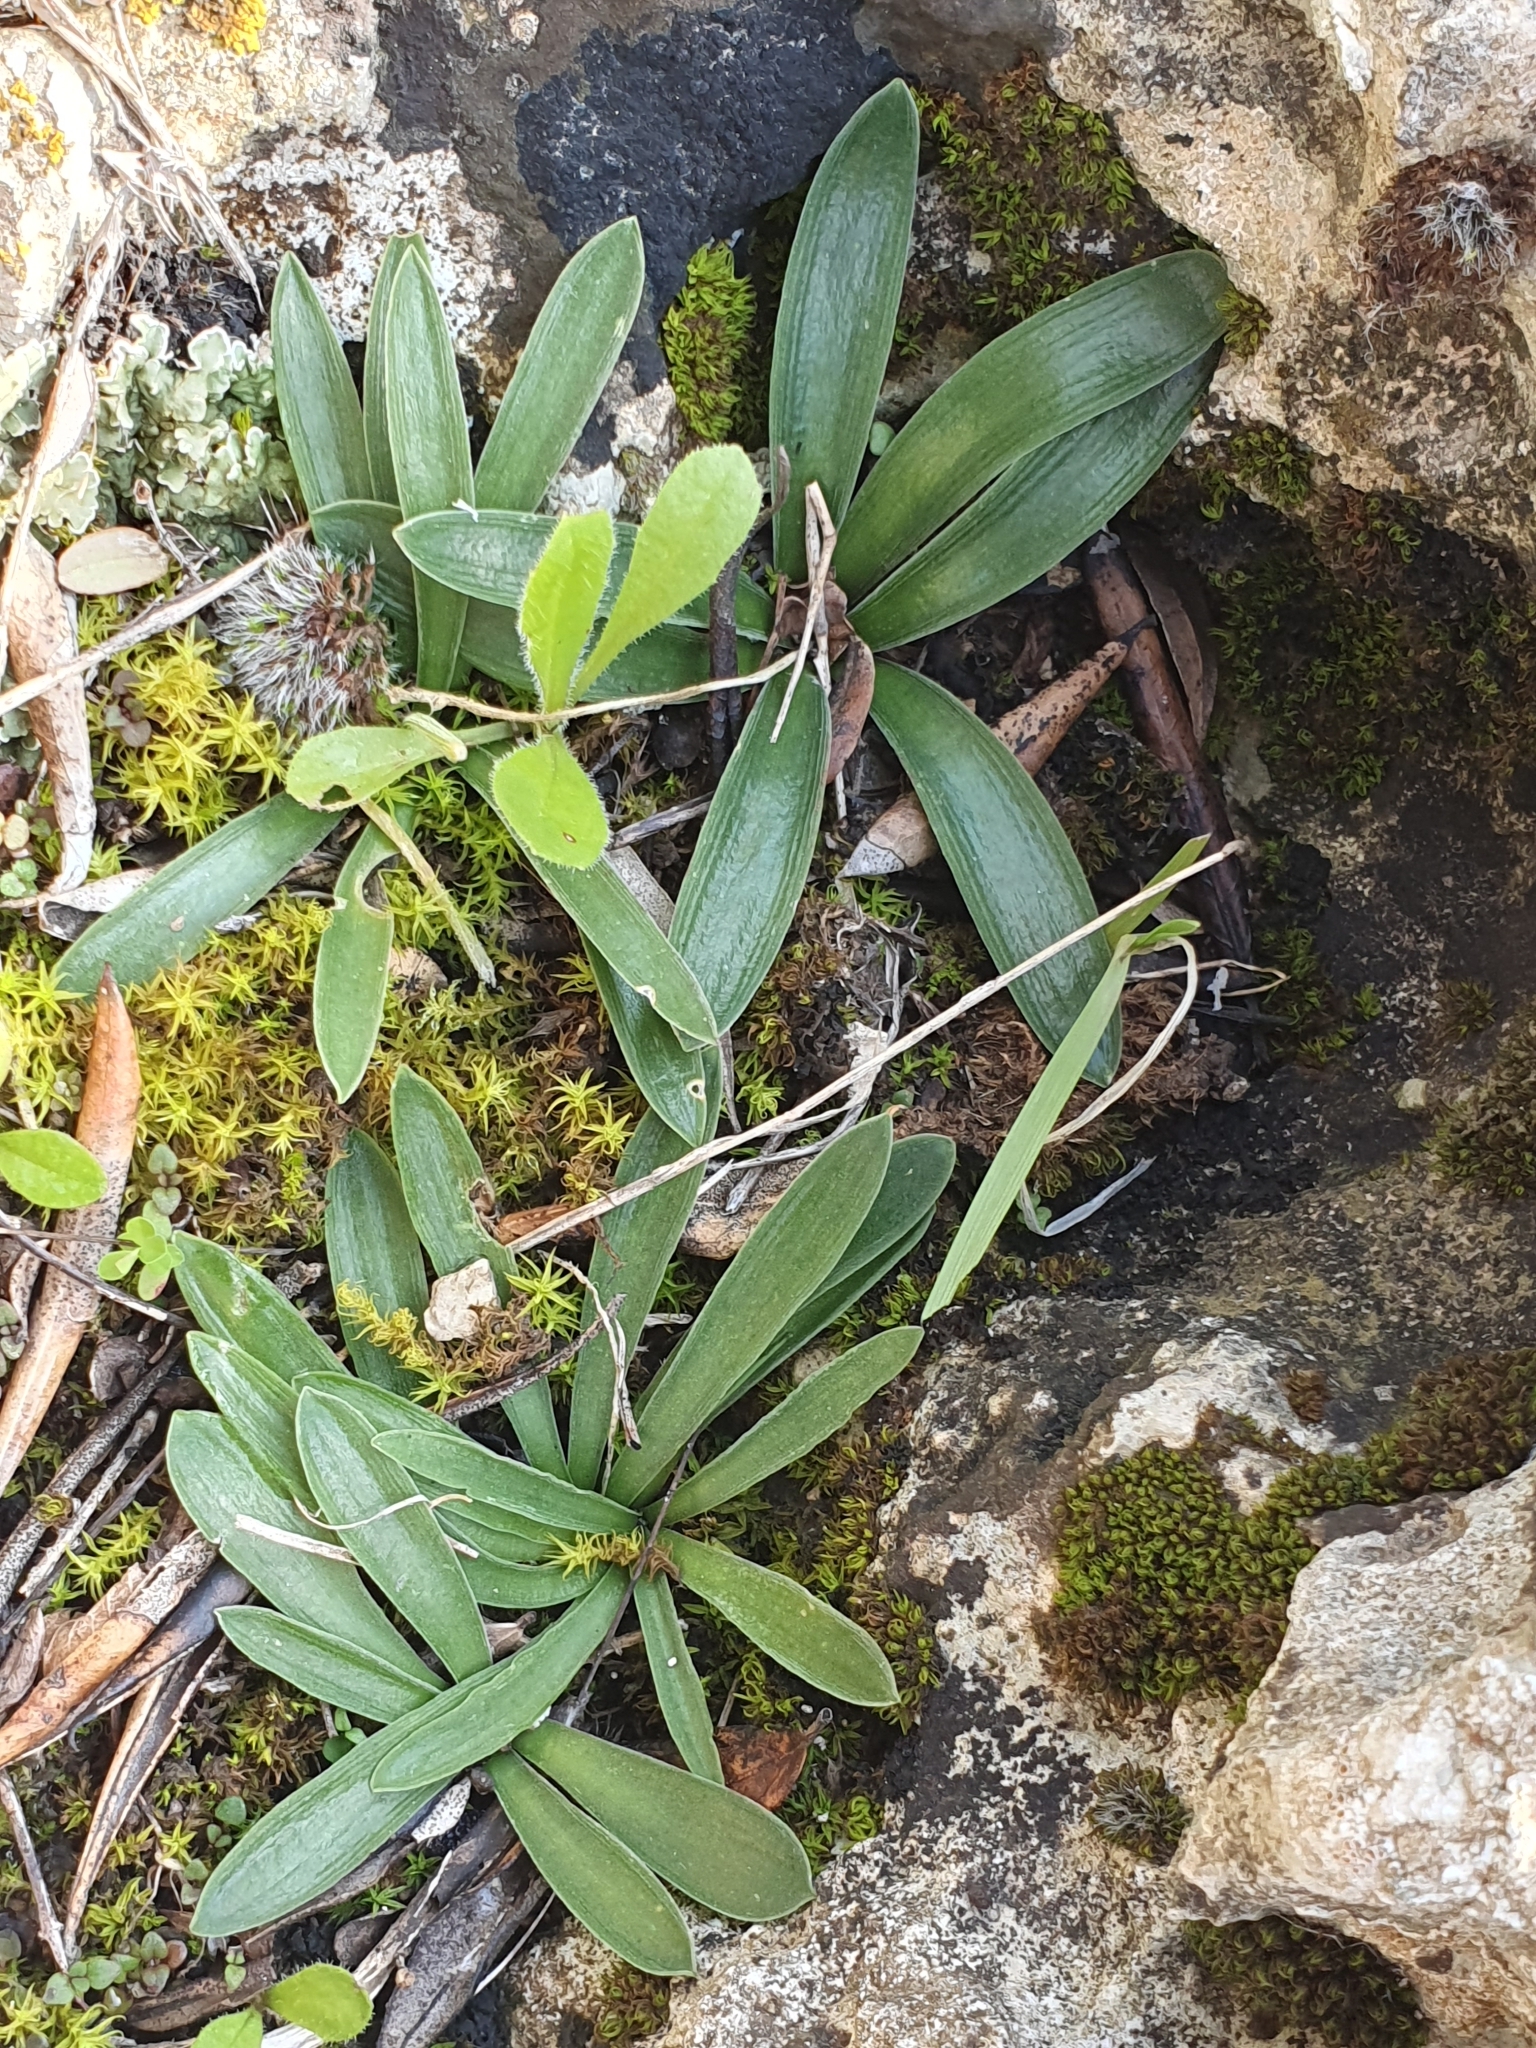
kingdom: Plantae
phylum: Tracheophyta
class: Liliopsida
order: Asparagales
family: Asparagaceae
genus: Hyacinthoides
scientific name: Hyacinthoides lingulata
